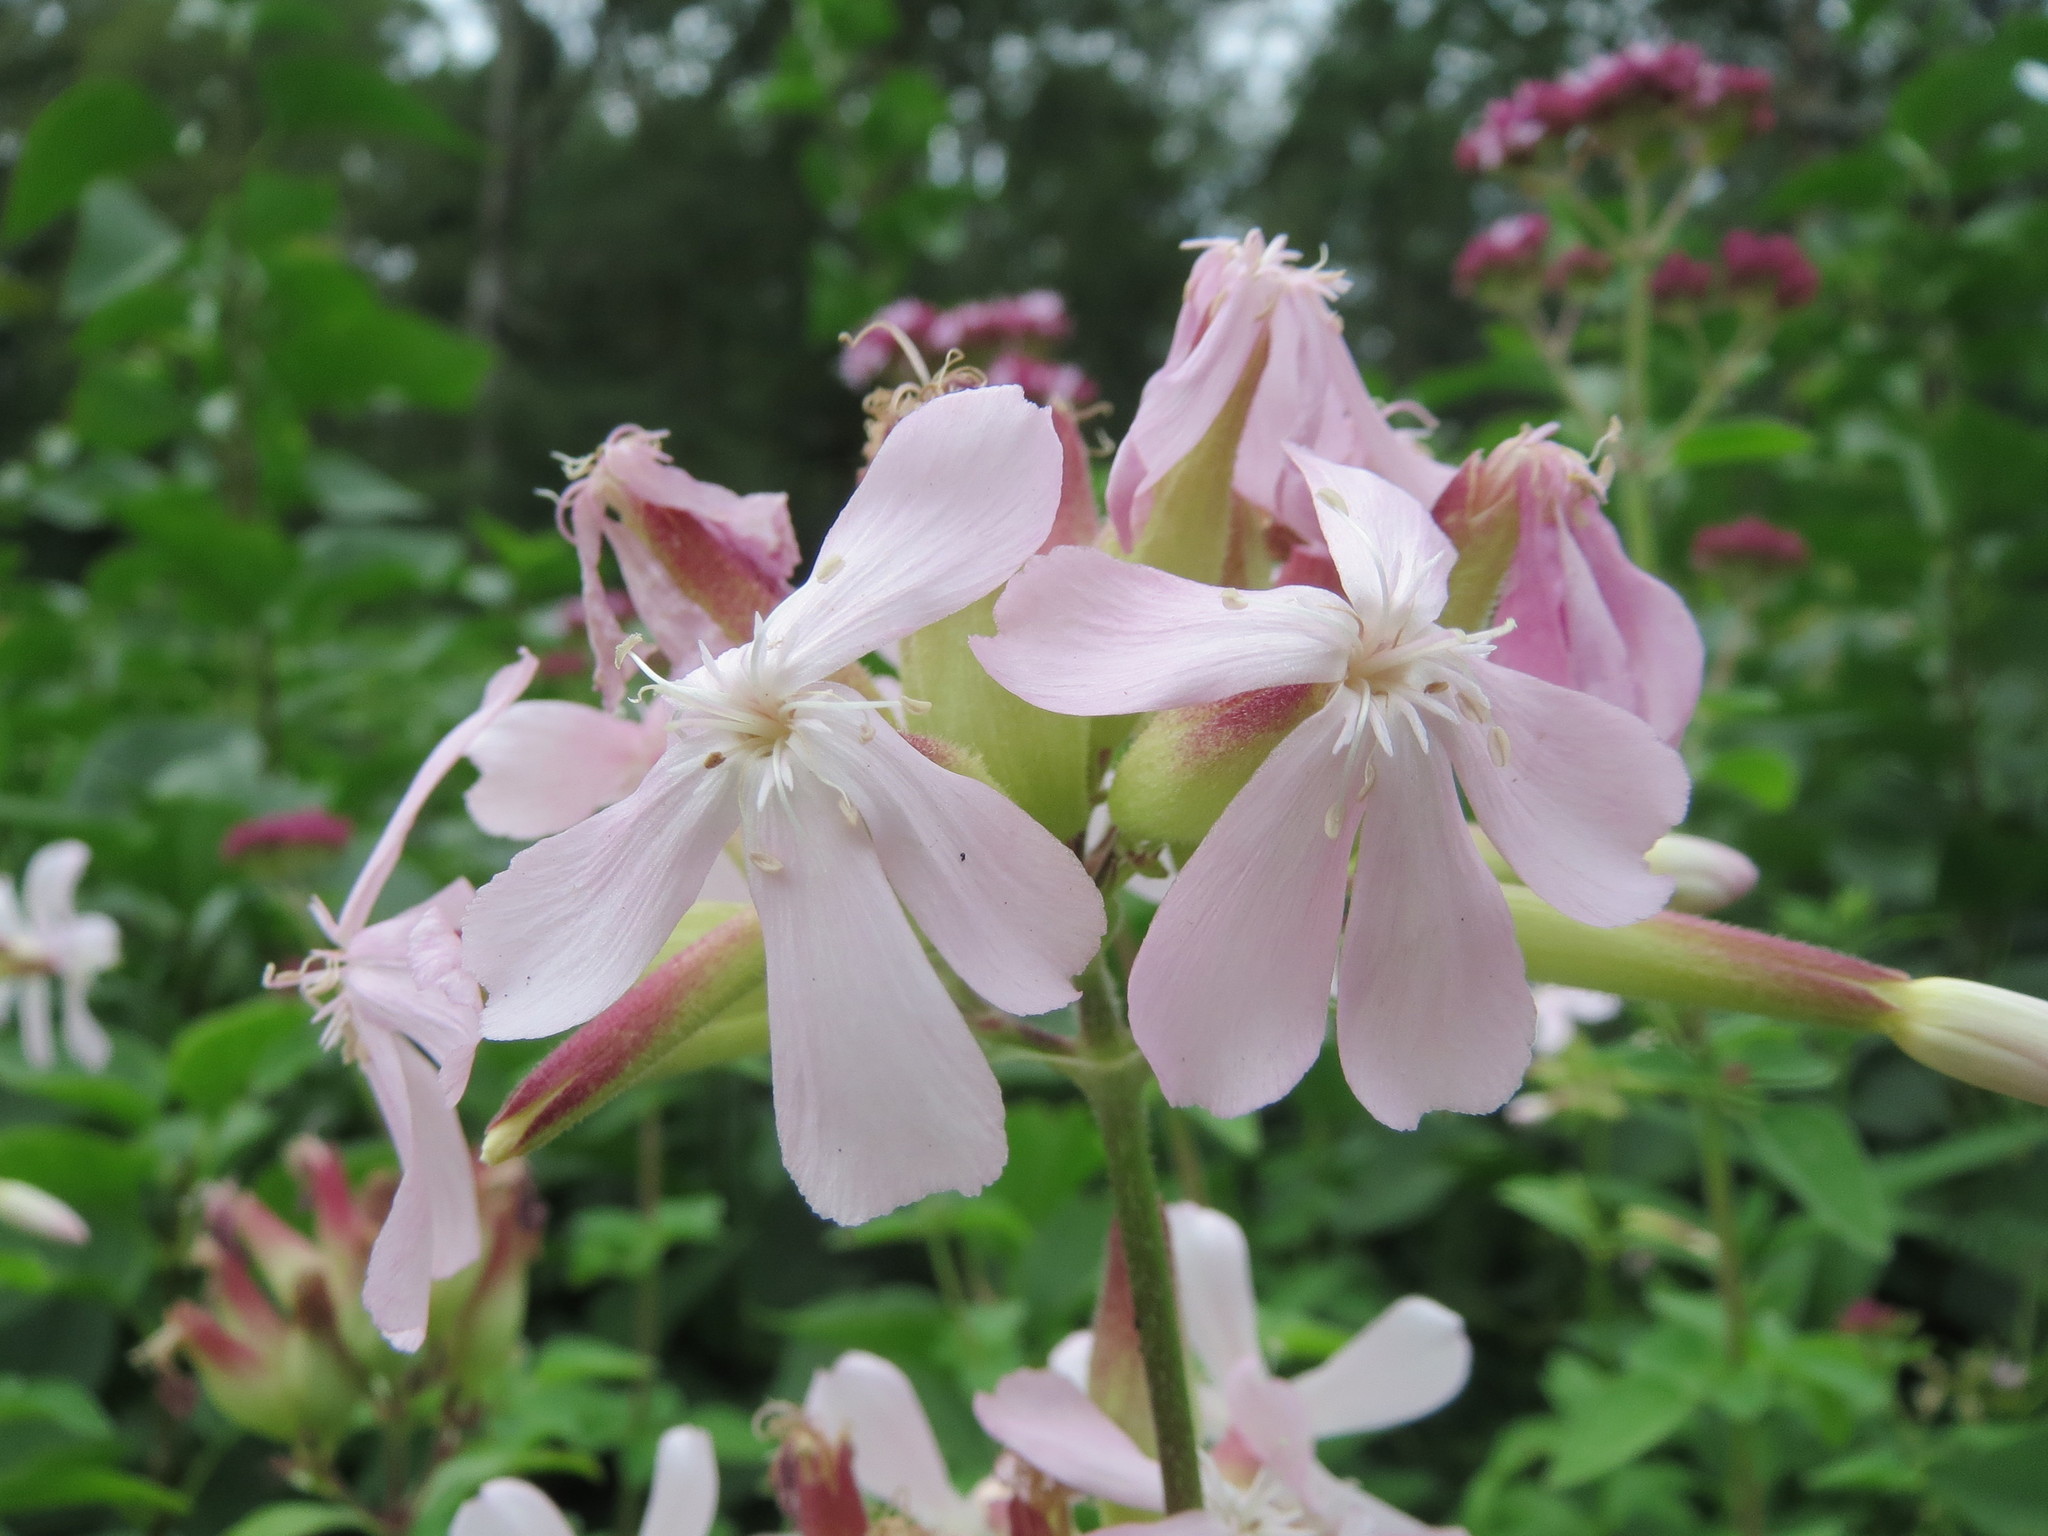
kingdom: Plantae
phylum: Tracheophyta
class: Magnoliopsida
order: Caryophyllales
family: Caryophyllaceae
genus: Saponaria
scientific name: Saponaria officinalis
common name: Soapwort
